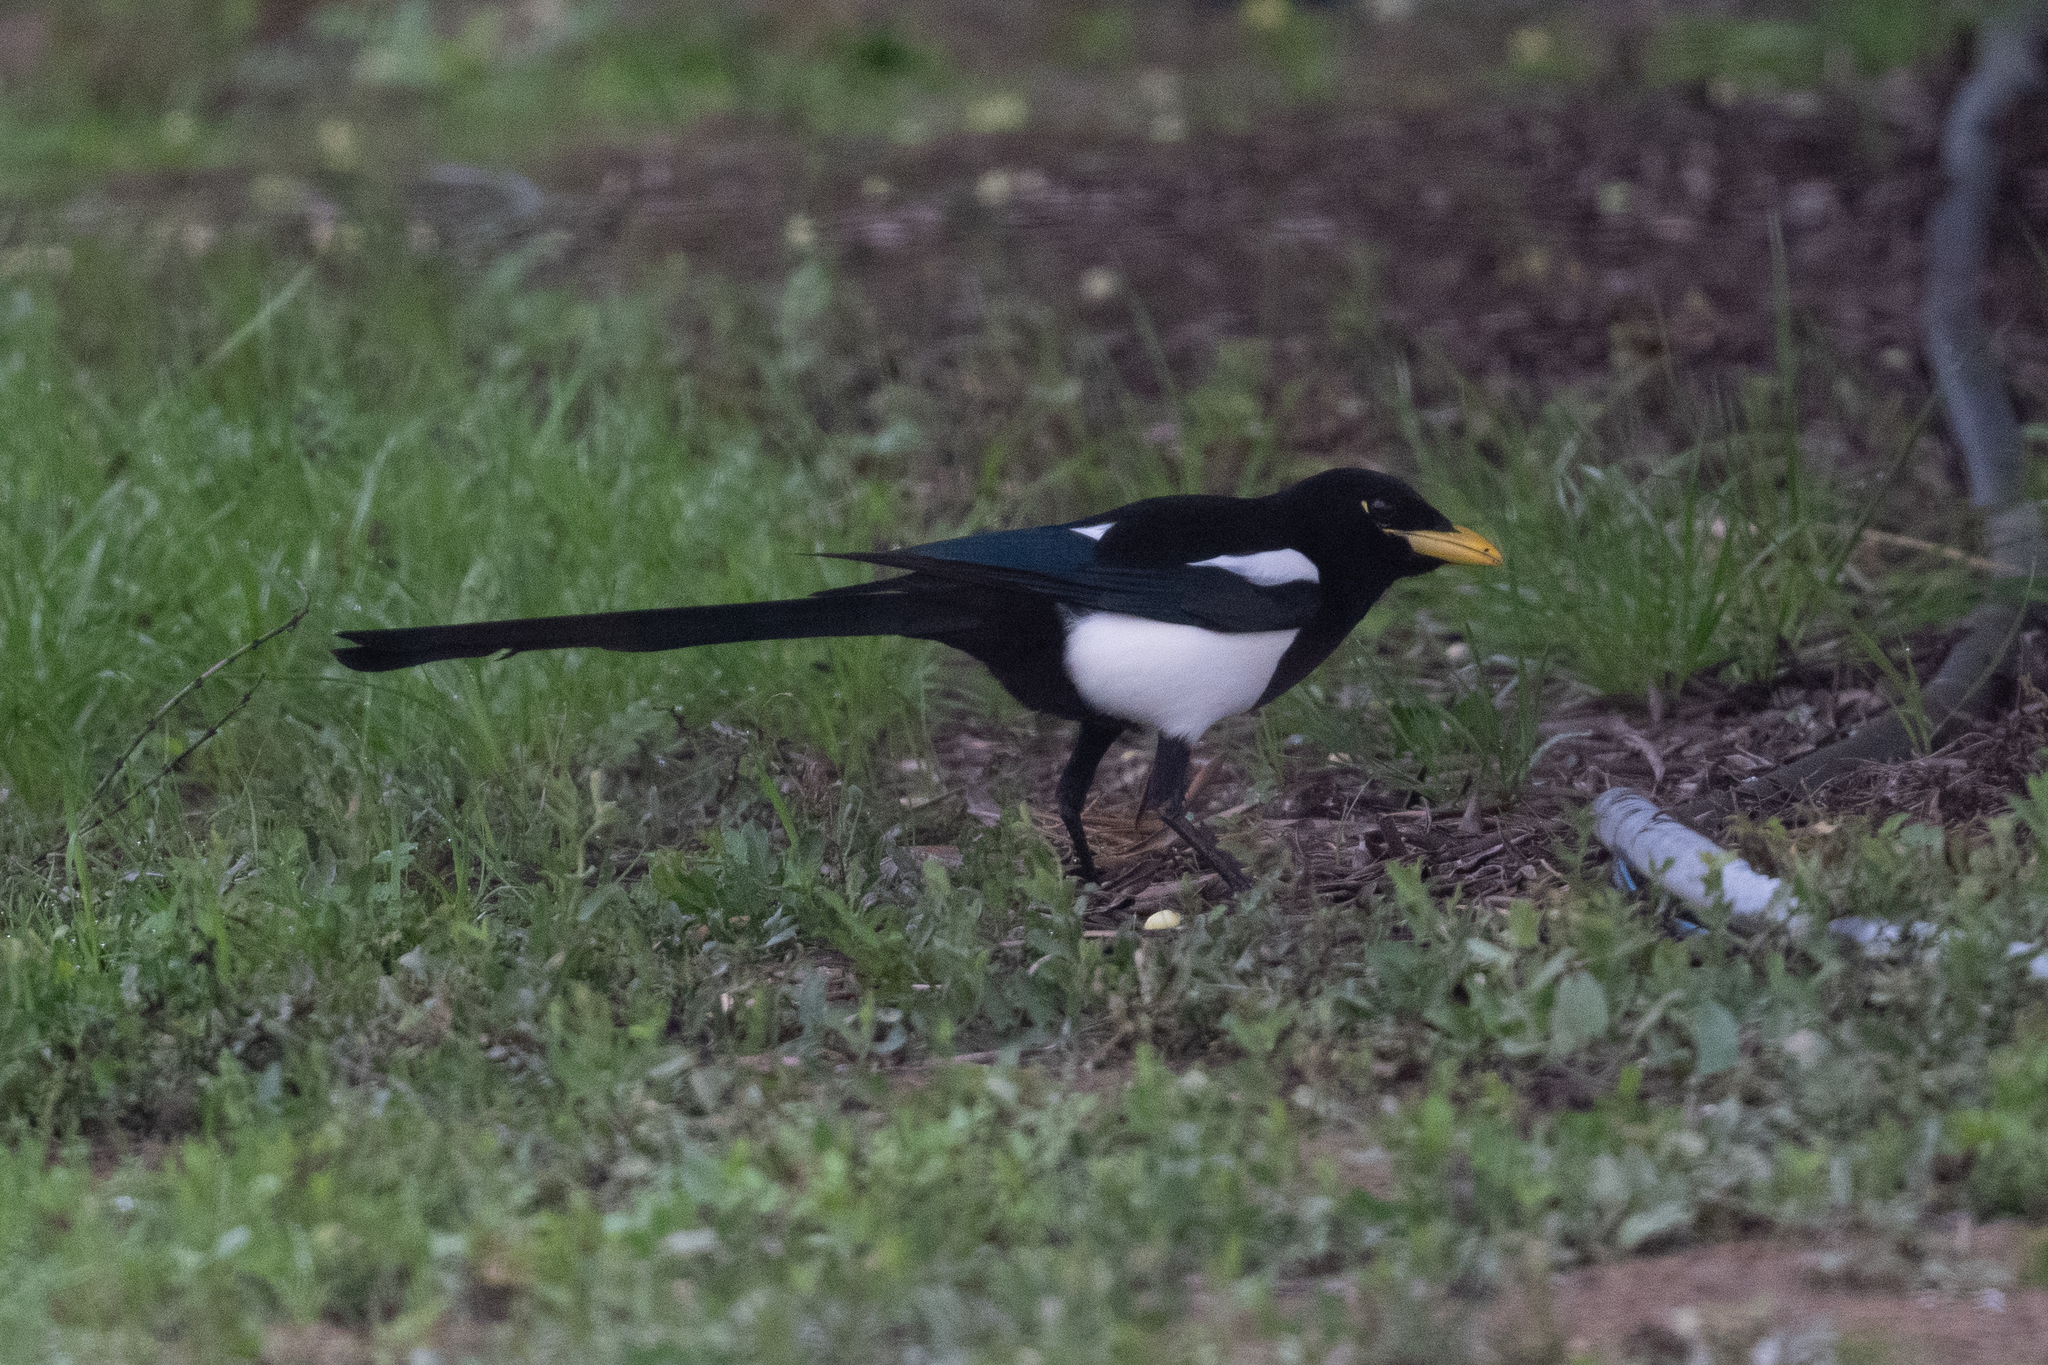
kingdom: Animalia
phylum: Chordata
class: Aves
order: Passeriformes
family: Corvidae
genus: Pica
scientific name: Pica nuttalli
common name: Yellow-billed magpie
